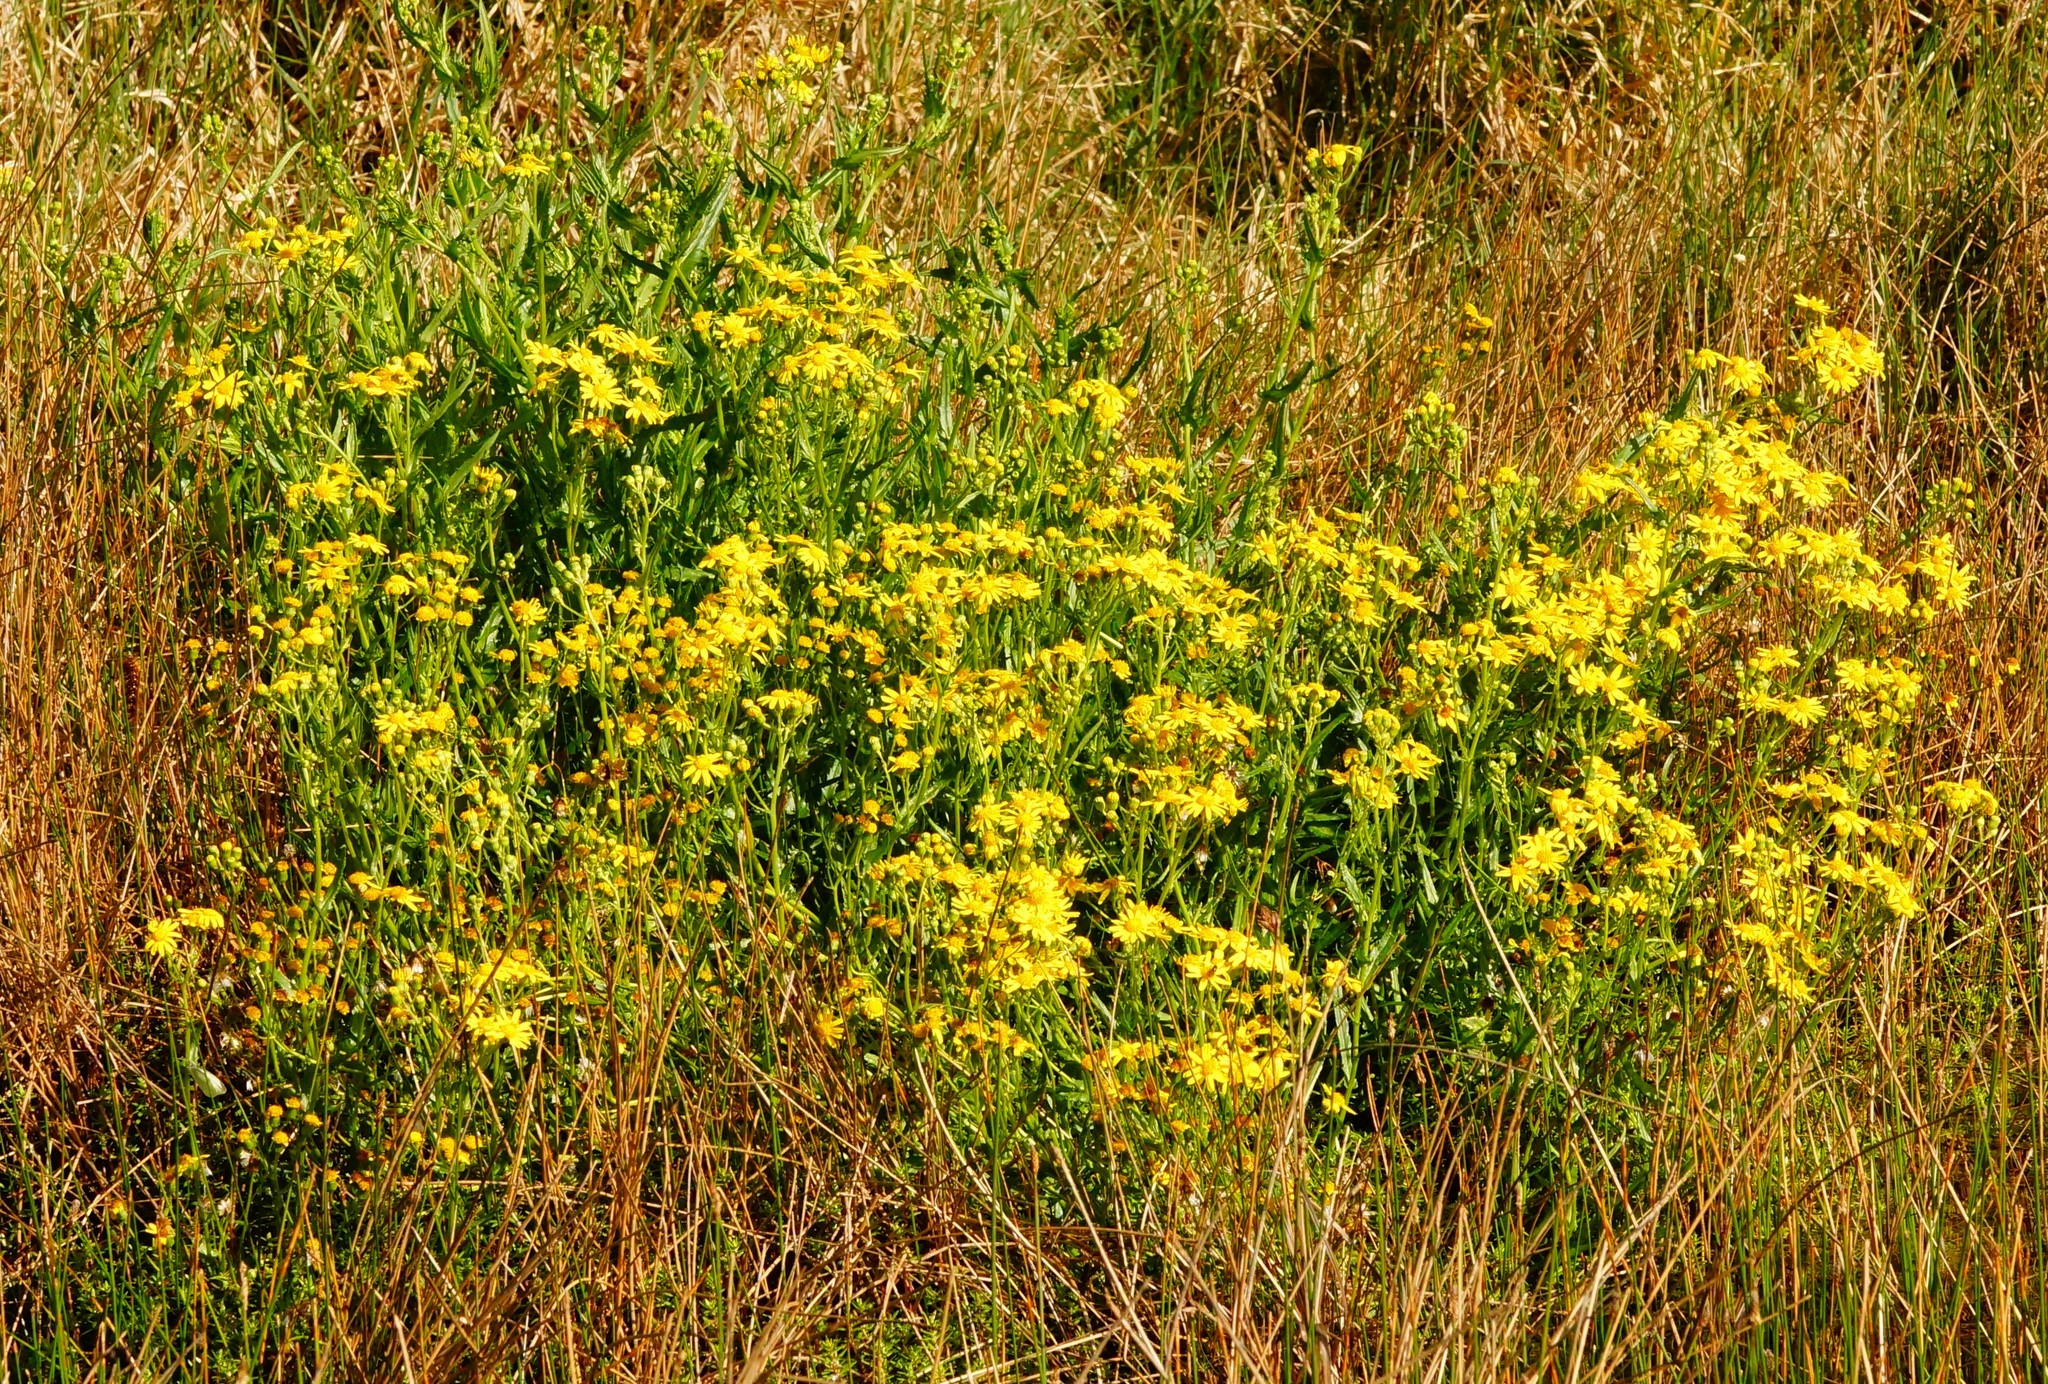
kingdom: Plantae
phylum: Tracheophyta
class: Magnoliopsida
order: Asterales
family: Asteraceae
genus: Senecio
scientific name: Senecio pinnatifolius
